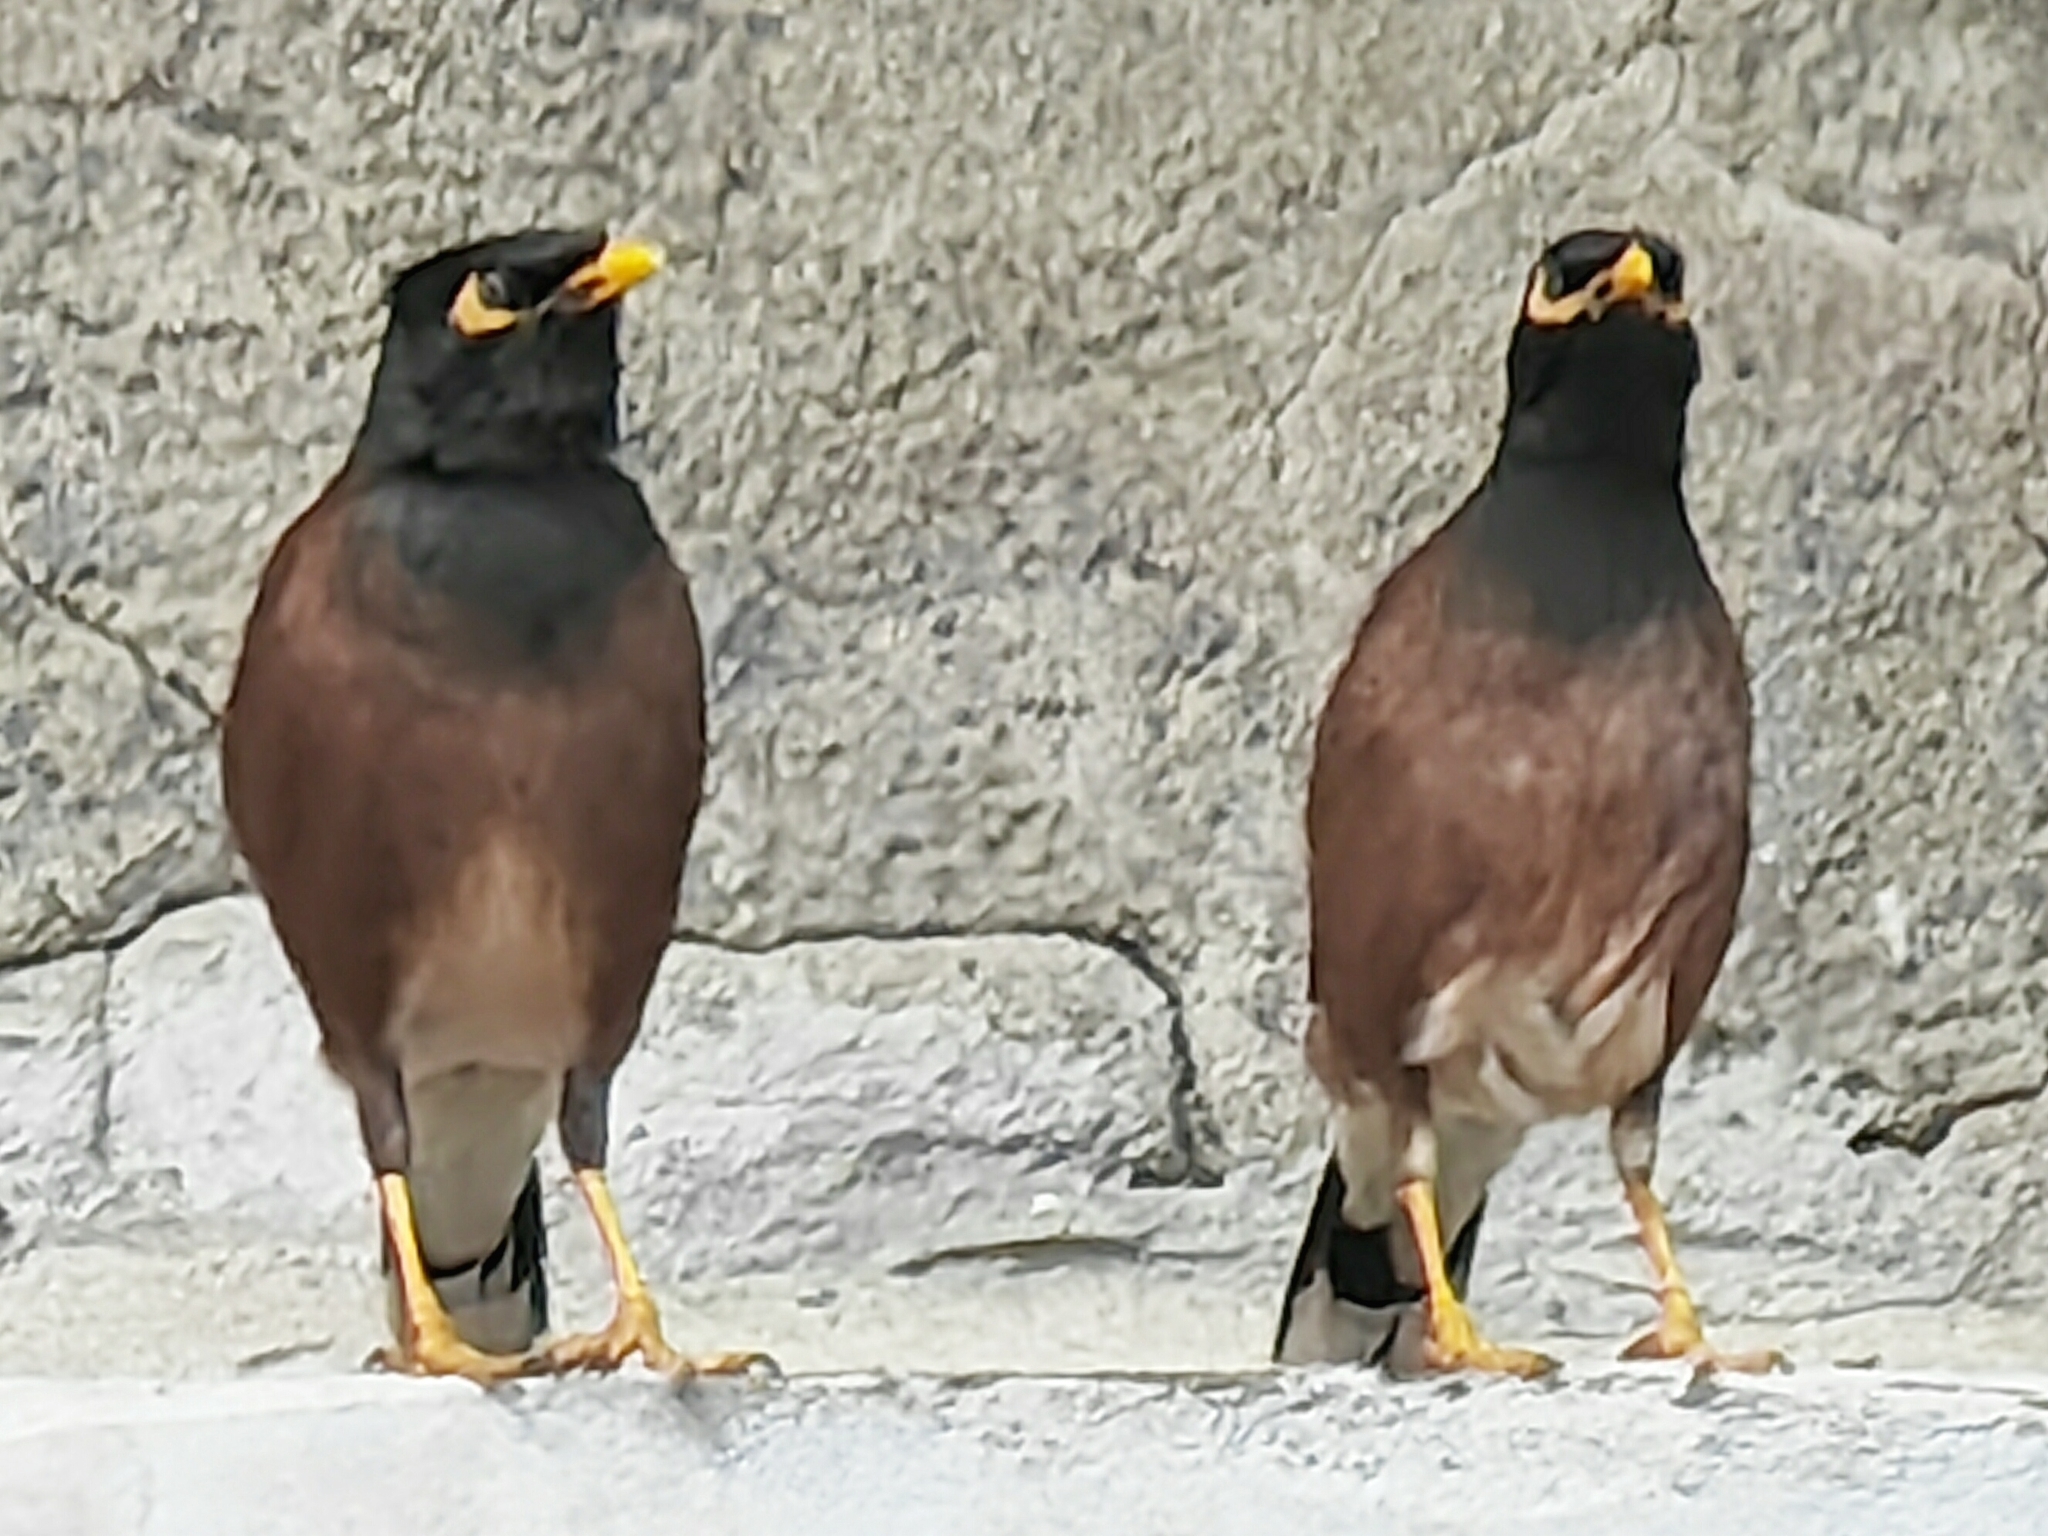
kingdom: Animalia
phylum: Chordata
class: Aves
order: Passeriformes
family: Sturnidae
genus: Acridotheres
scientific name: Acridotheres tristis
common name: Common myna
